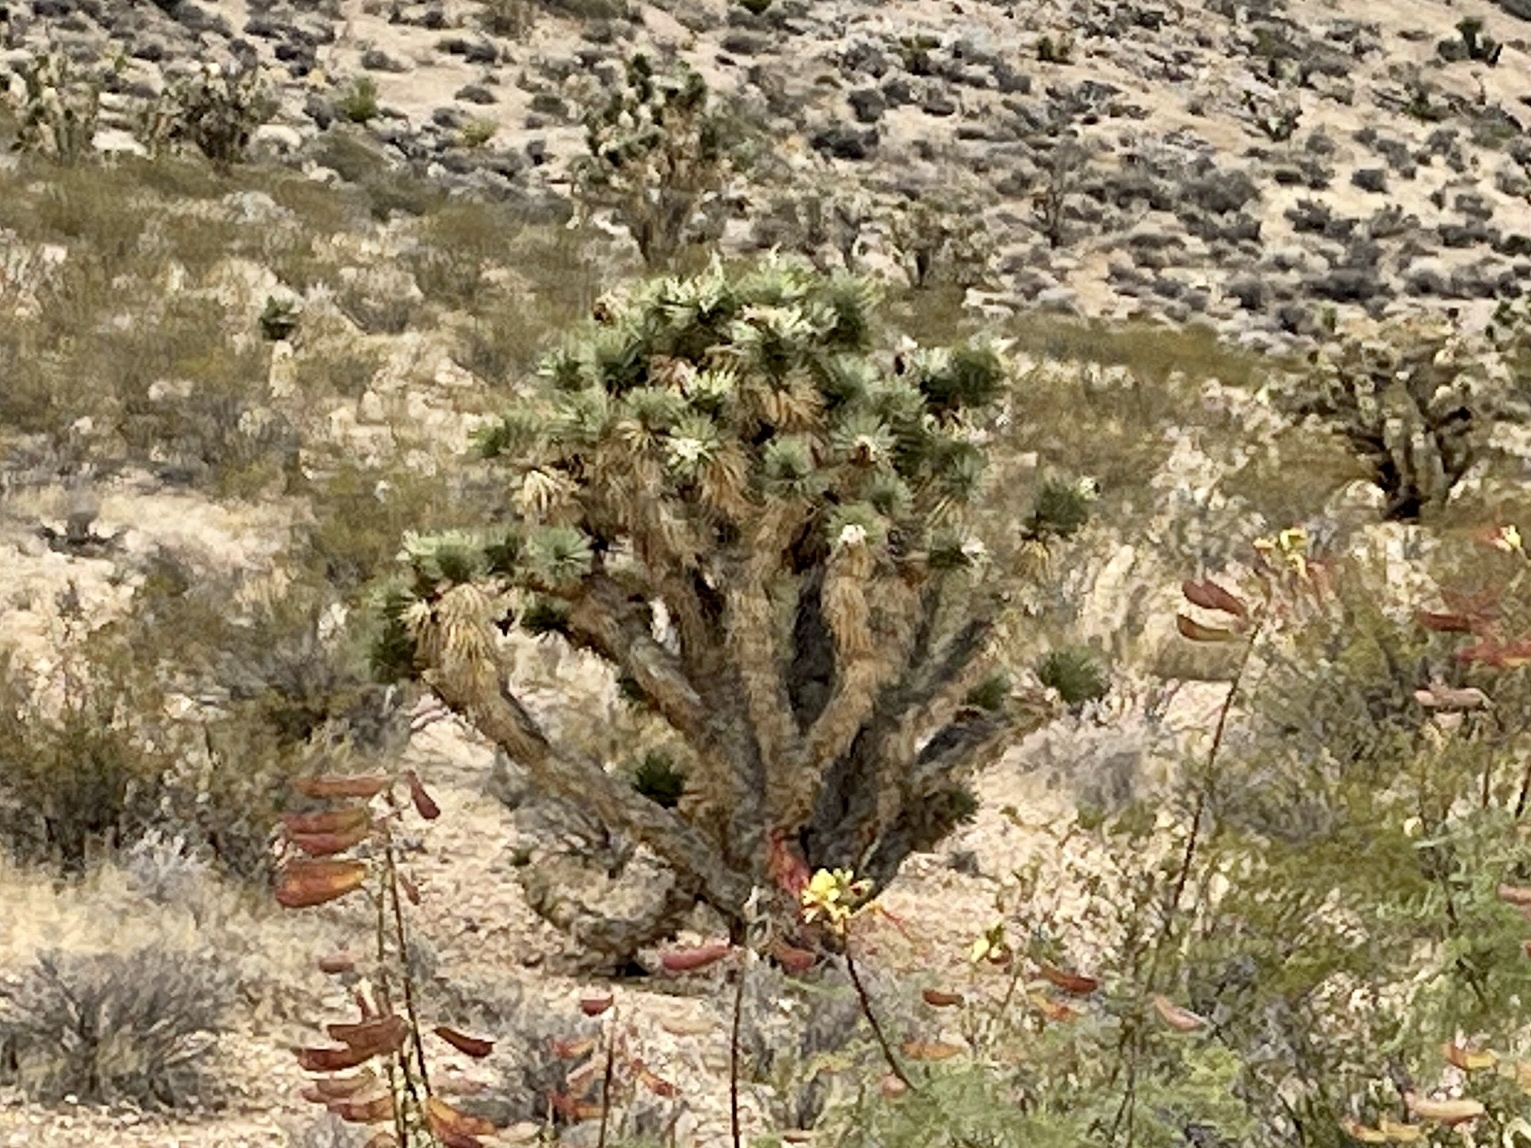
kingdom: Plantae
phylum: Tracheophyta
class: Liliopsida
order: Asparagales
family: Asparagaceae
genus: Yucca
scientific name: Yucca brevifolia
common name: Joshua tree
